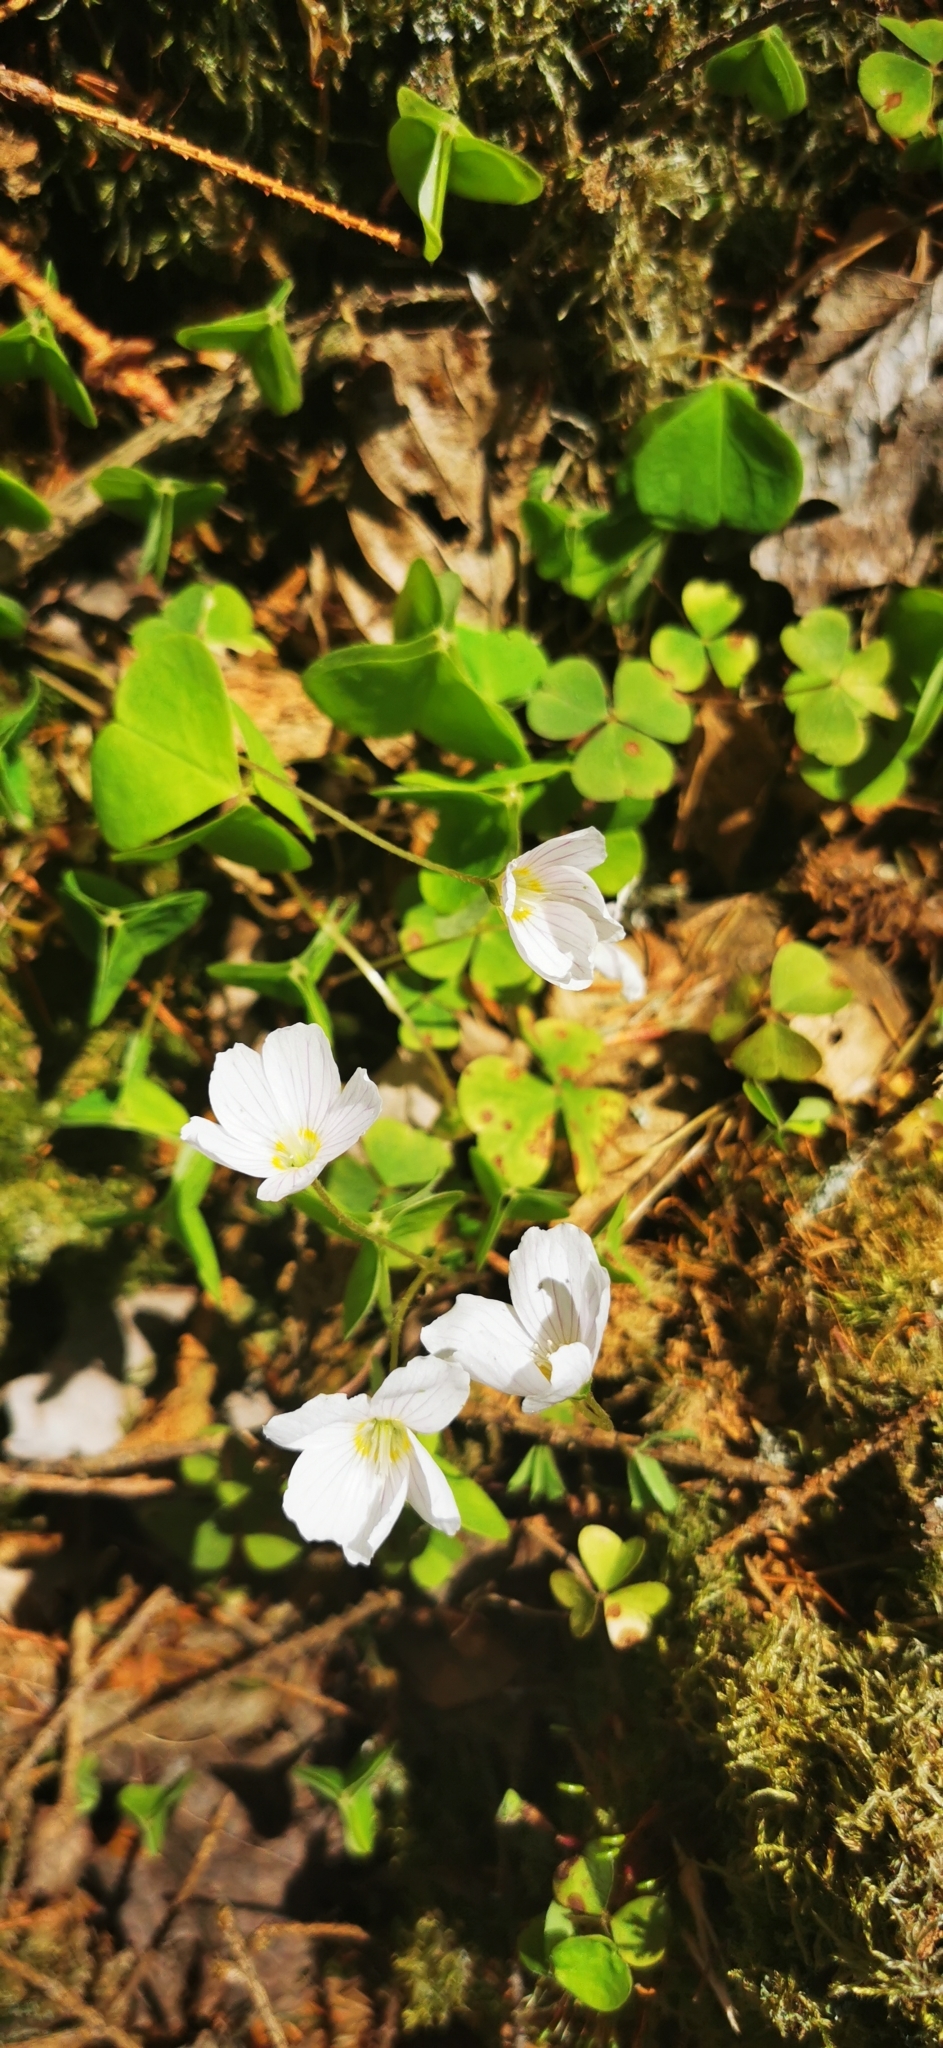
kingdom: Plantae
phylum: Tracheophyta
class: Magnoliopsida
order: Oxalidales
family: Oxalidaceae
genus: Oxalis
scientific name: Oxalis acetosella
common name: Wood-sorrel
